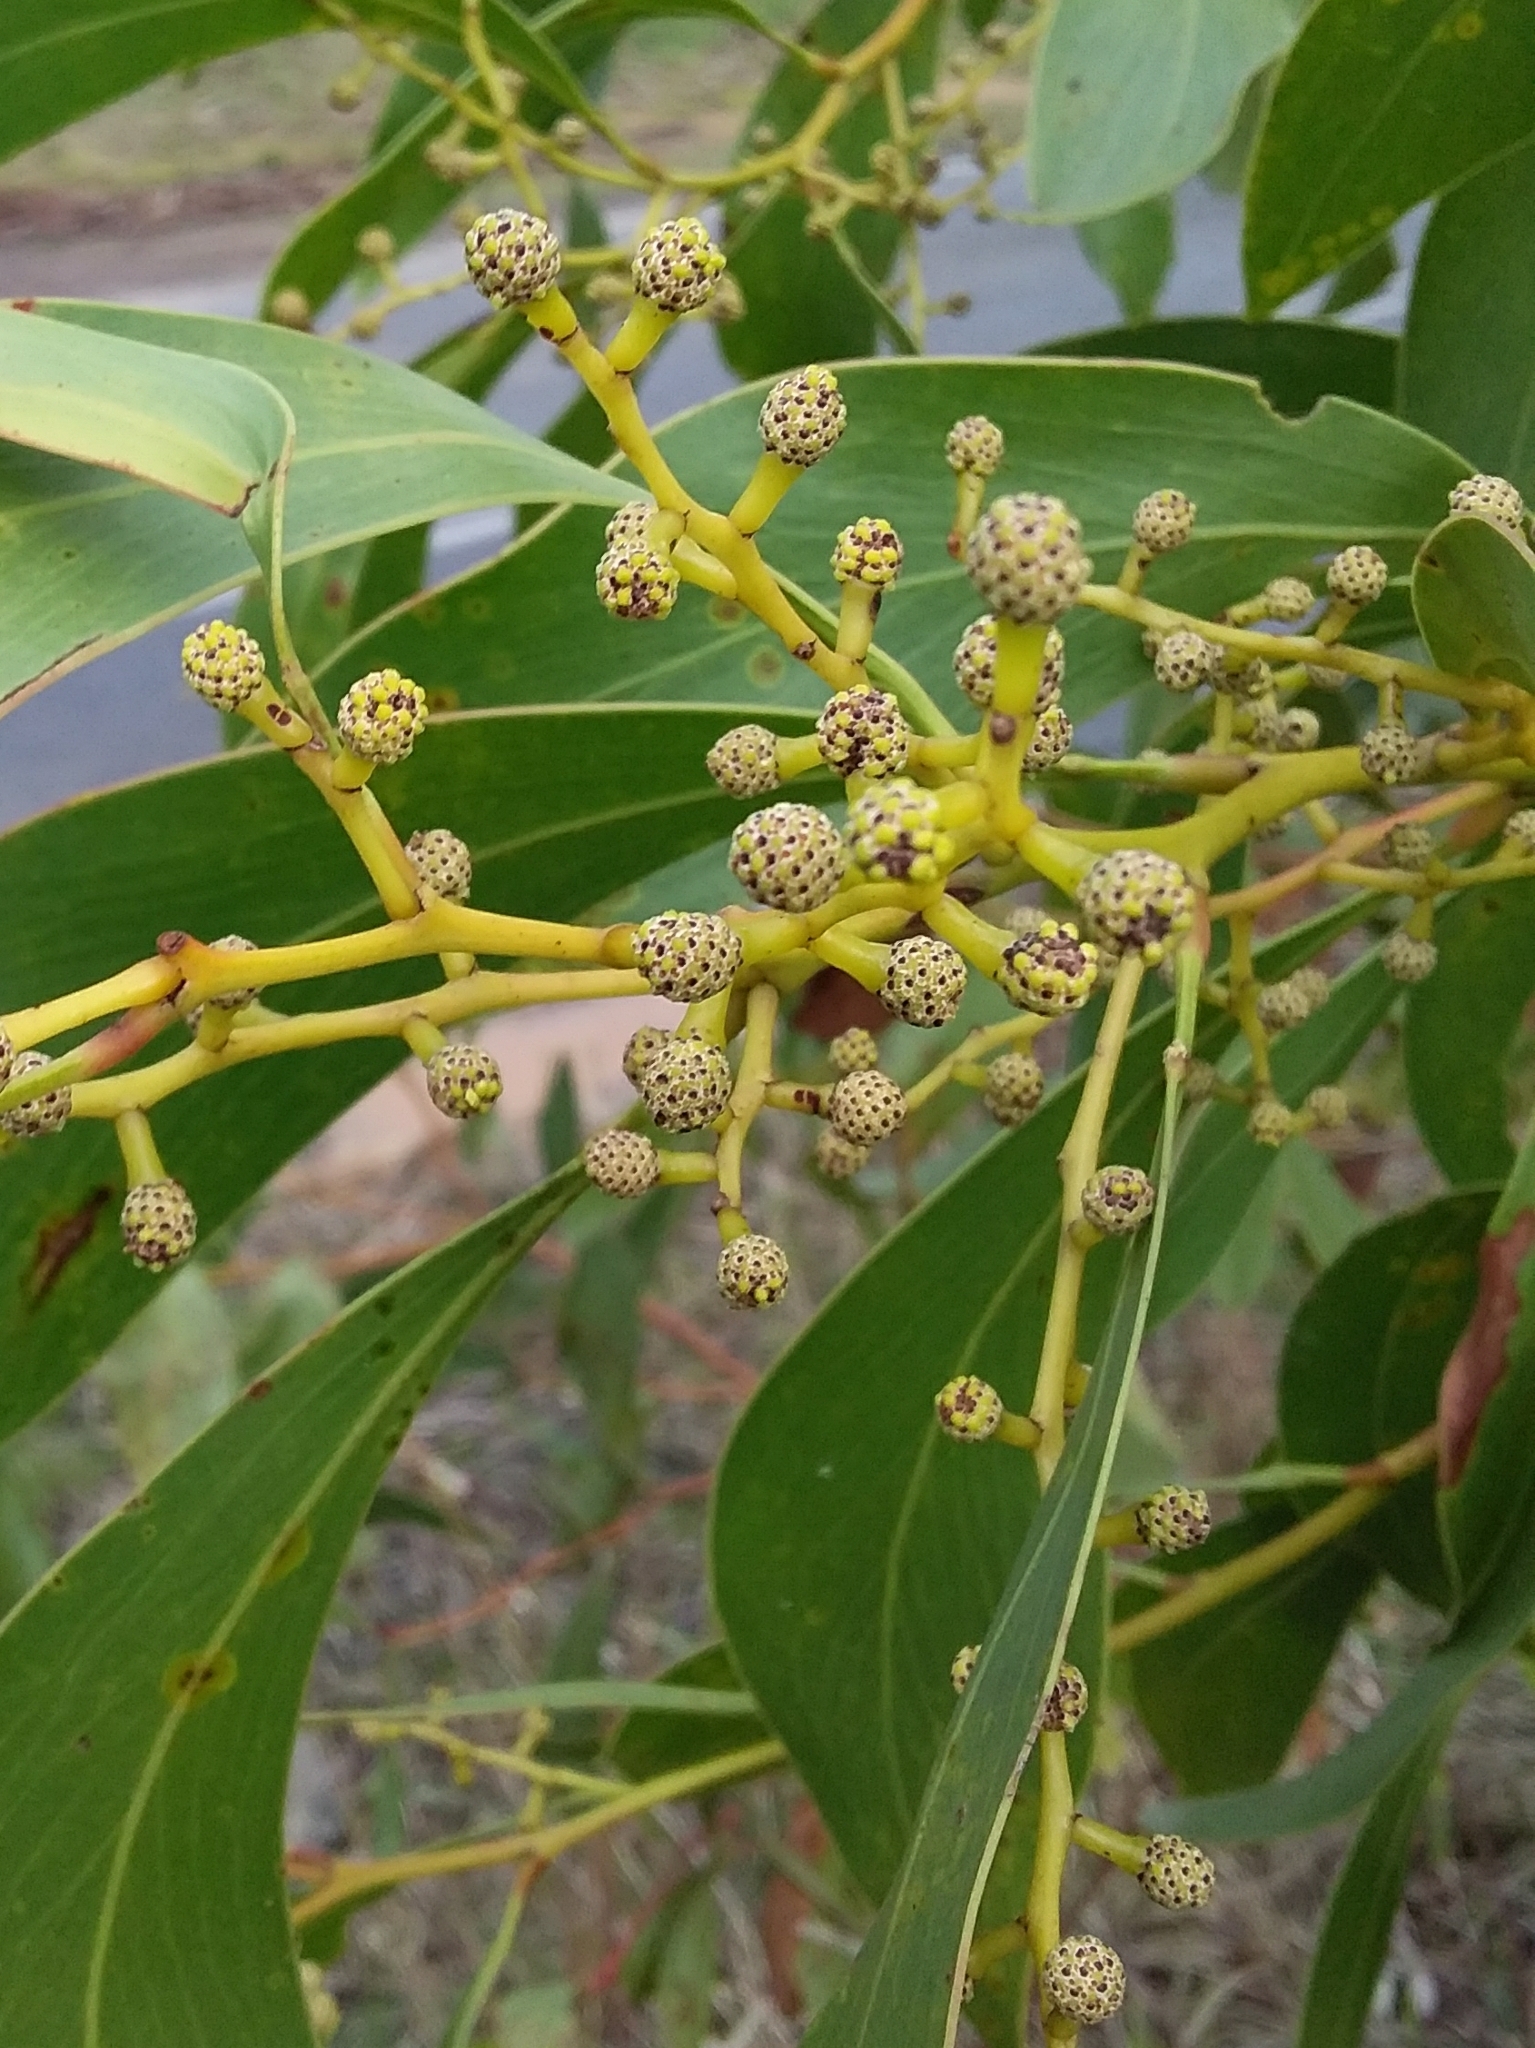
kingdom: Plantae
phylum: Tracheophyta
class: Magnoliopsida
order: Fabales
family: Fabaceae
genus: Acacia
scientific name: Acacia pycnantha
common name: Golden wattle
